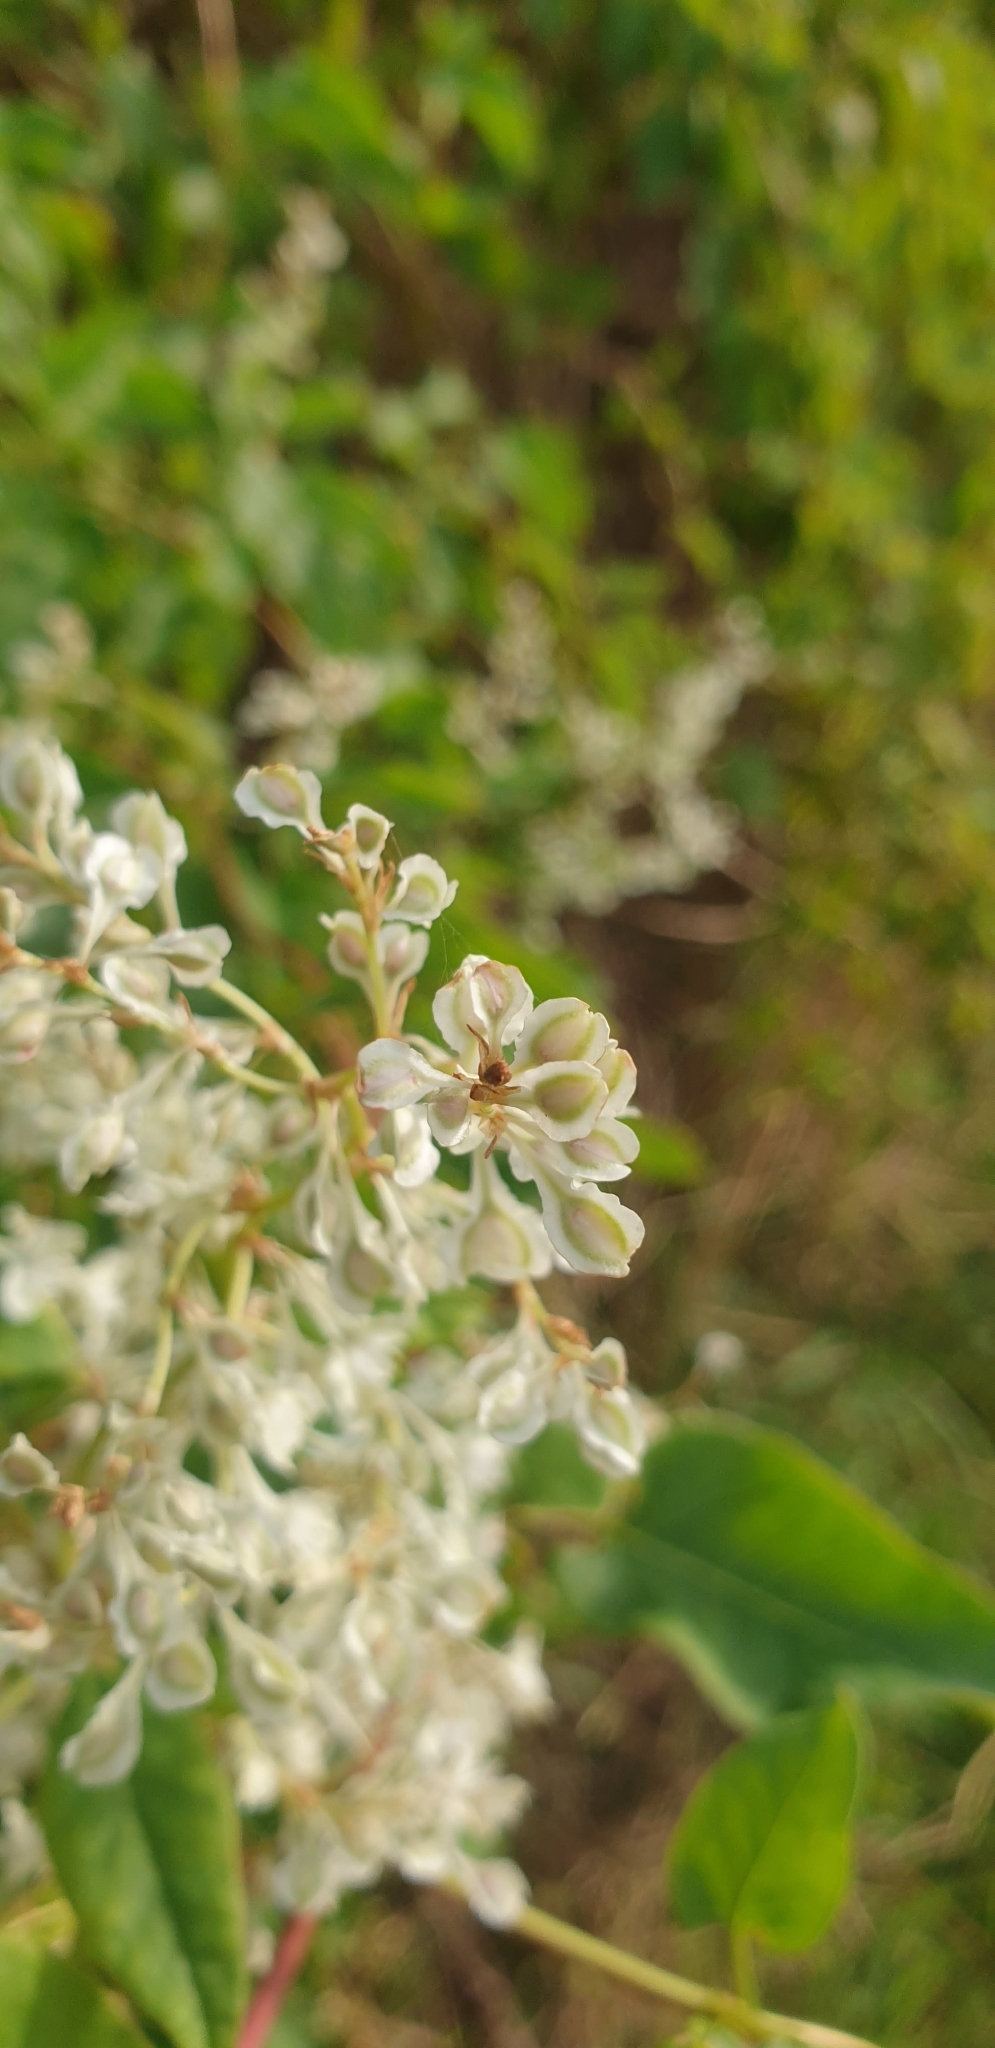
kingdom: Plantae
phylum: Tracheophyta
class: Magnoliopsida
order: Caryophyllales
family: Polygonaceae
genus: Fallopia
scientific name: Fallopia baldschuanica
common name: Russian-vine
